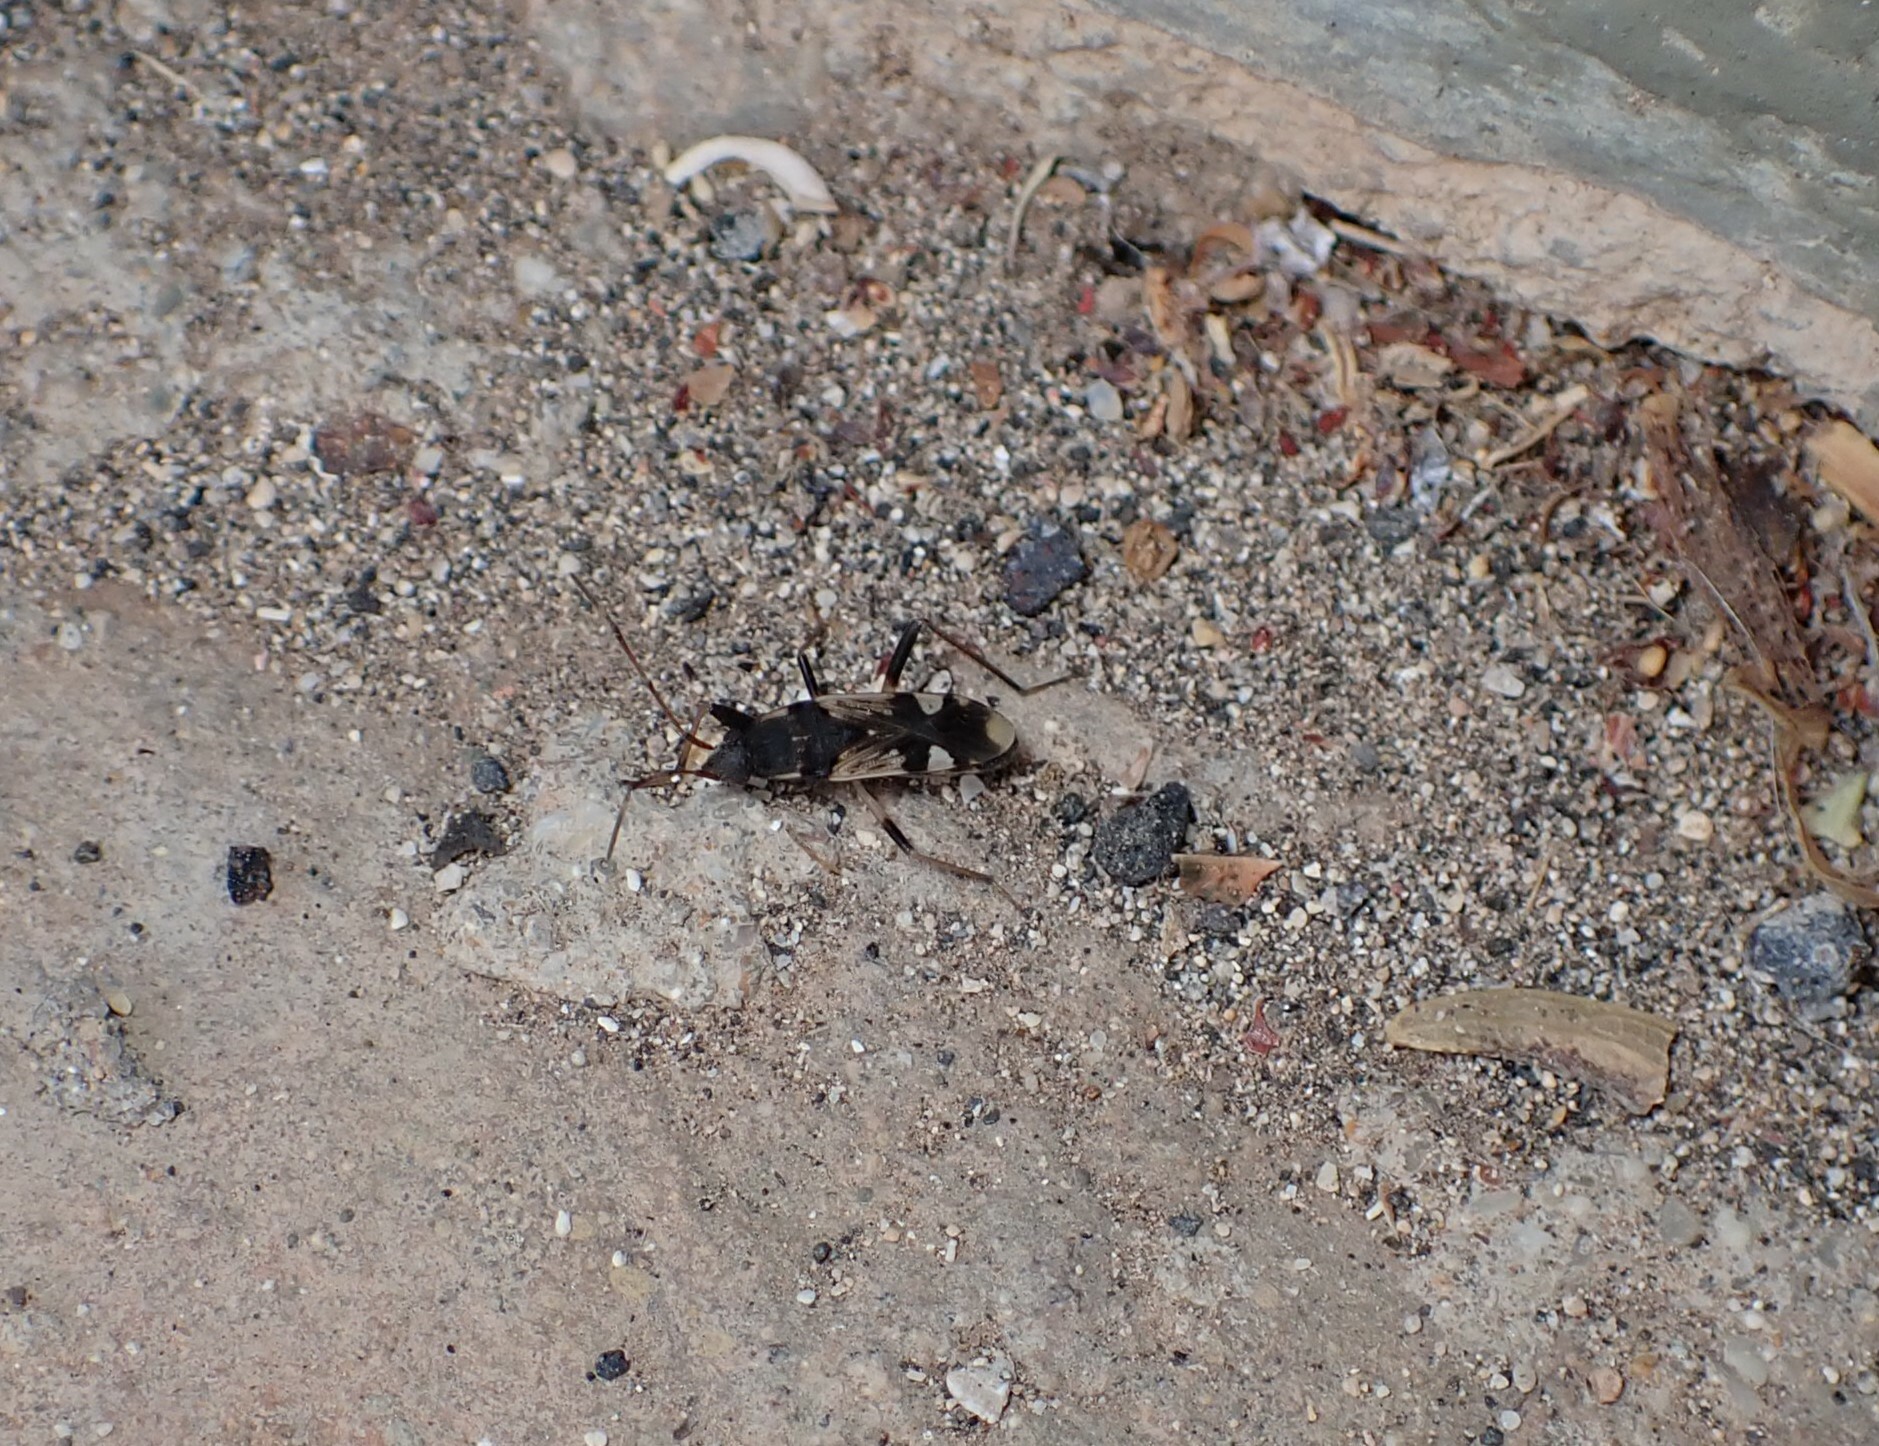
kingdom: Animalia
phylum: Arthropoda
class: Insecta
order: Hemiptera
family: Rhyparochromidae
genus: Dieuches
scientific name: Dieuches schmitzi
